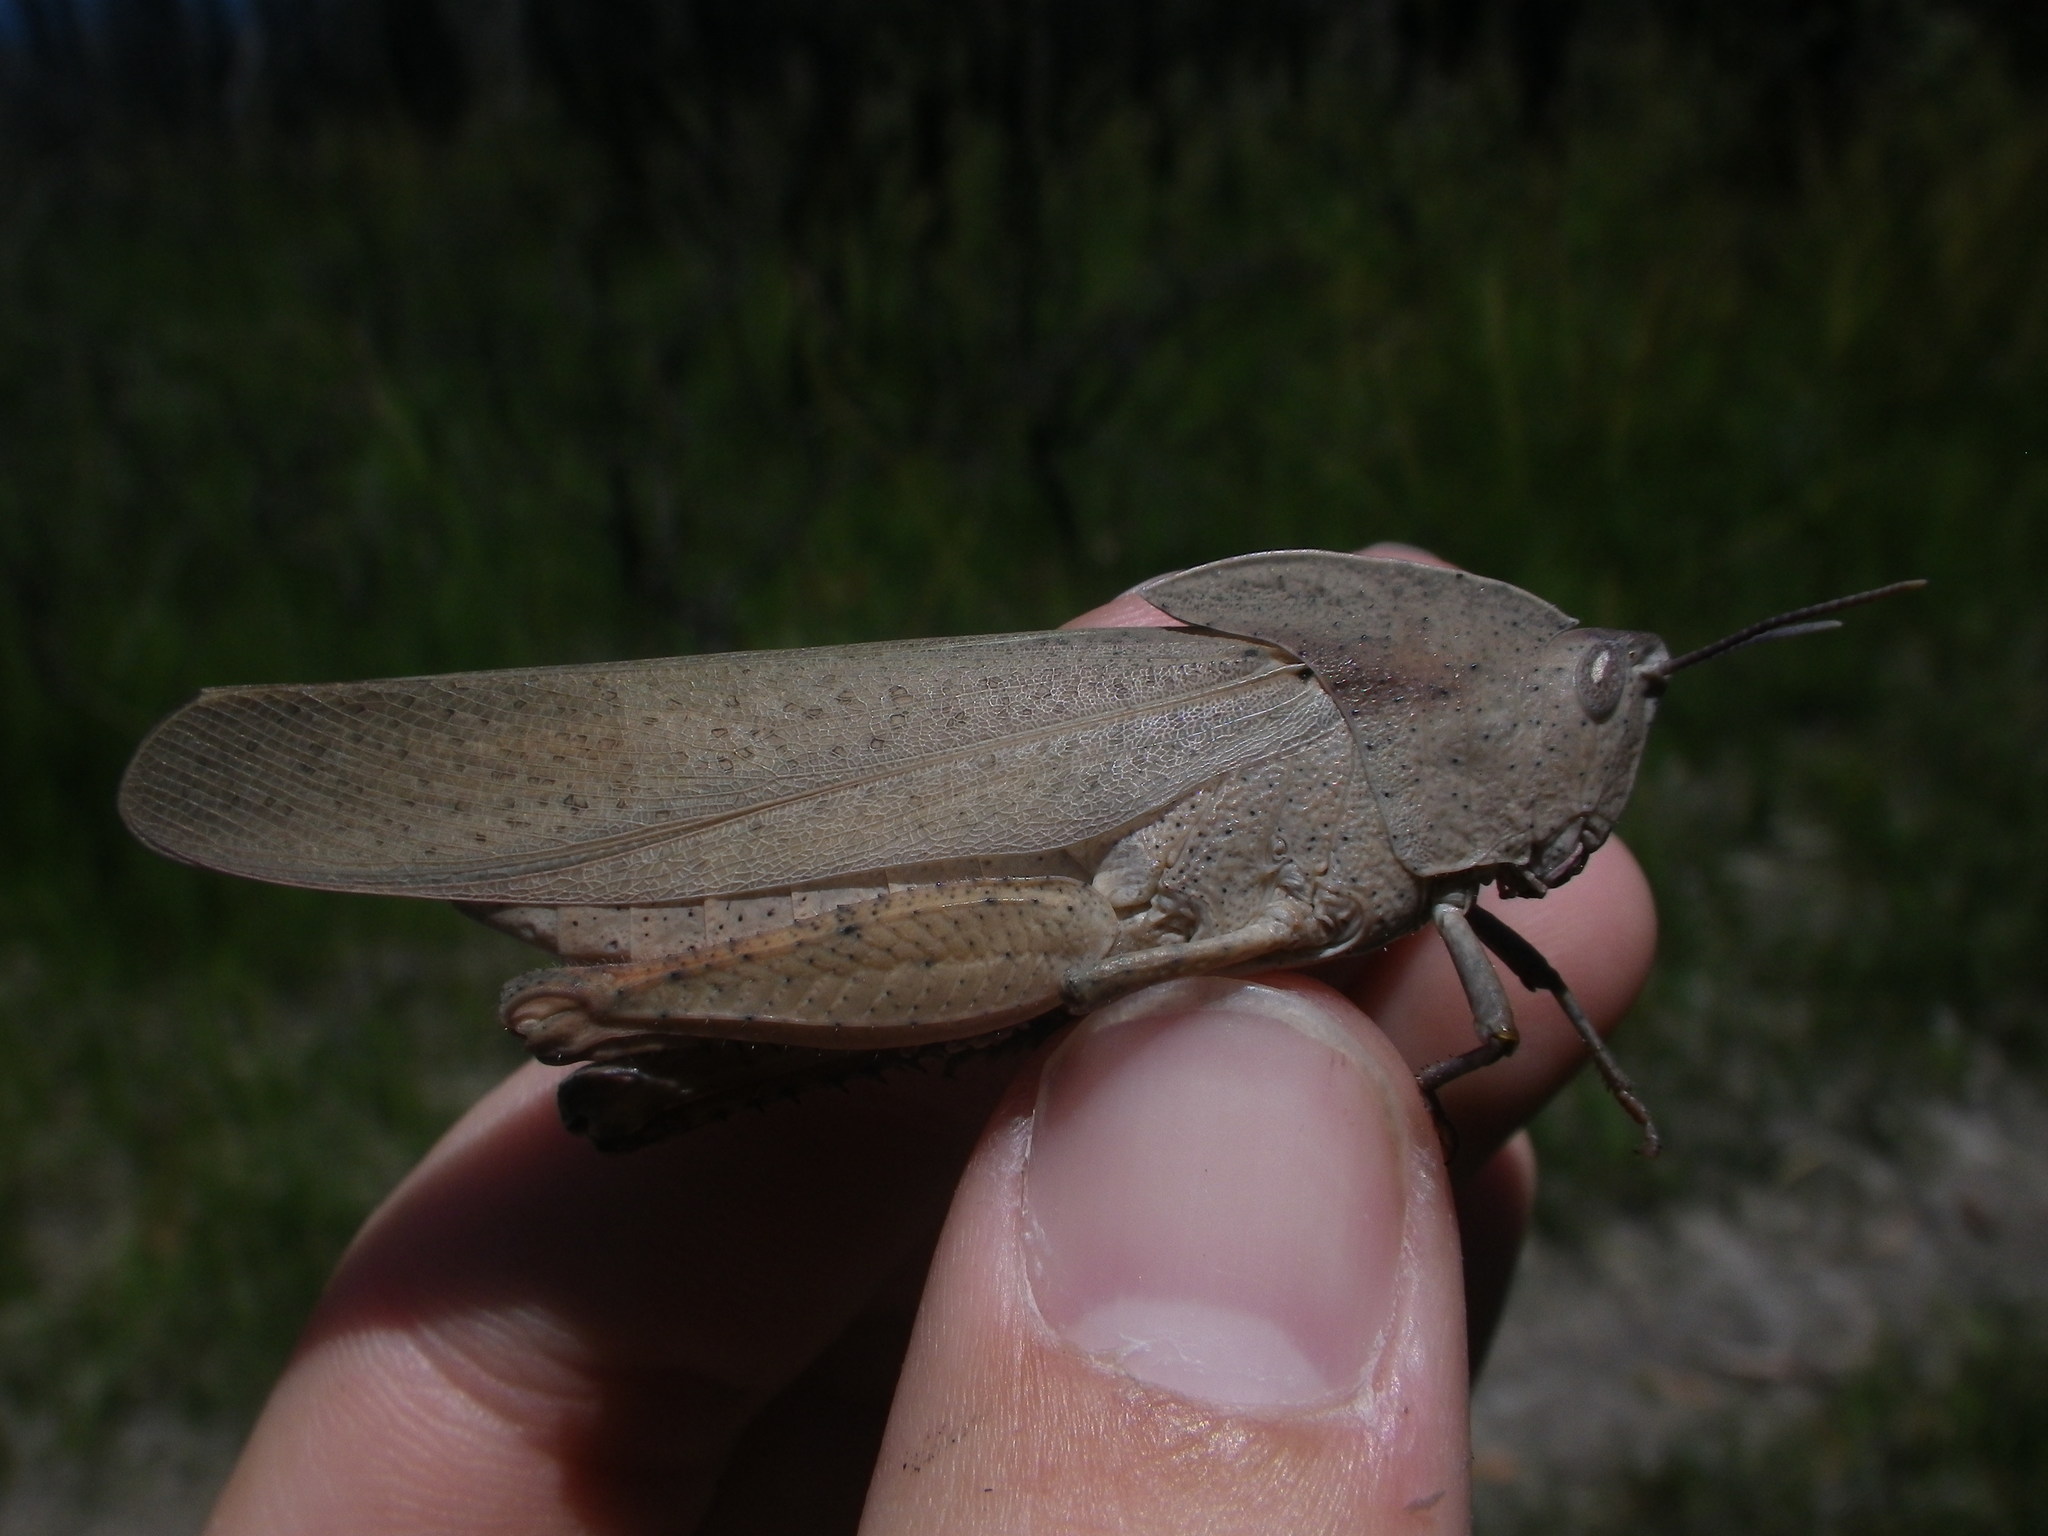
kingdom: Animalia
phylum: Arthropoda
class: Insecta
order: Orthoptera
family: Acrididae
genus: Goniaea
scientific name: Goniaea australasiae
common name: Gumleaf grasshopper
